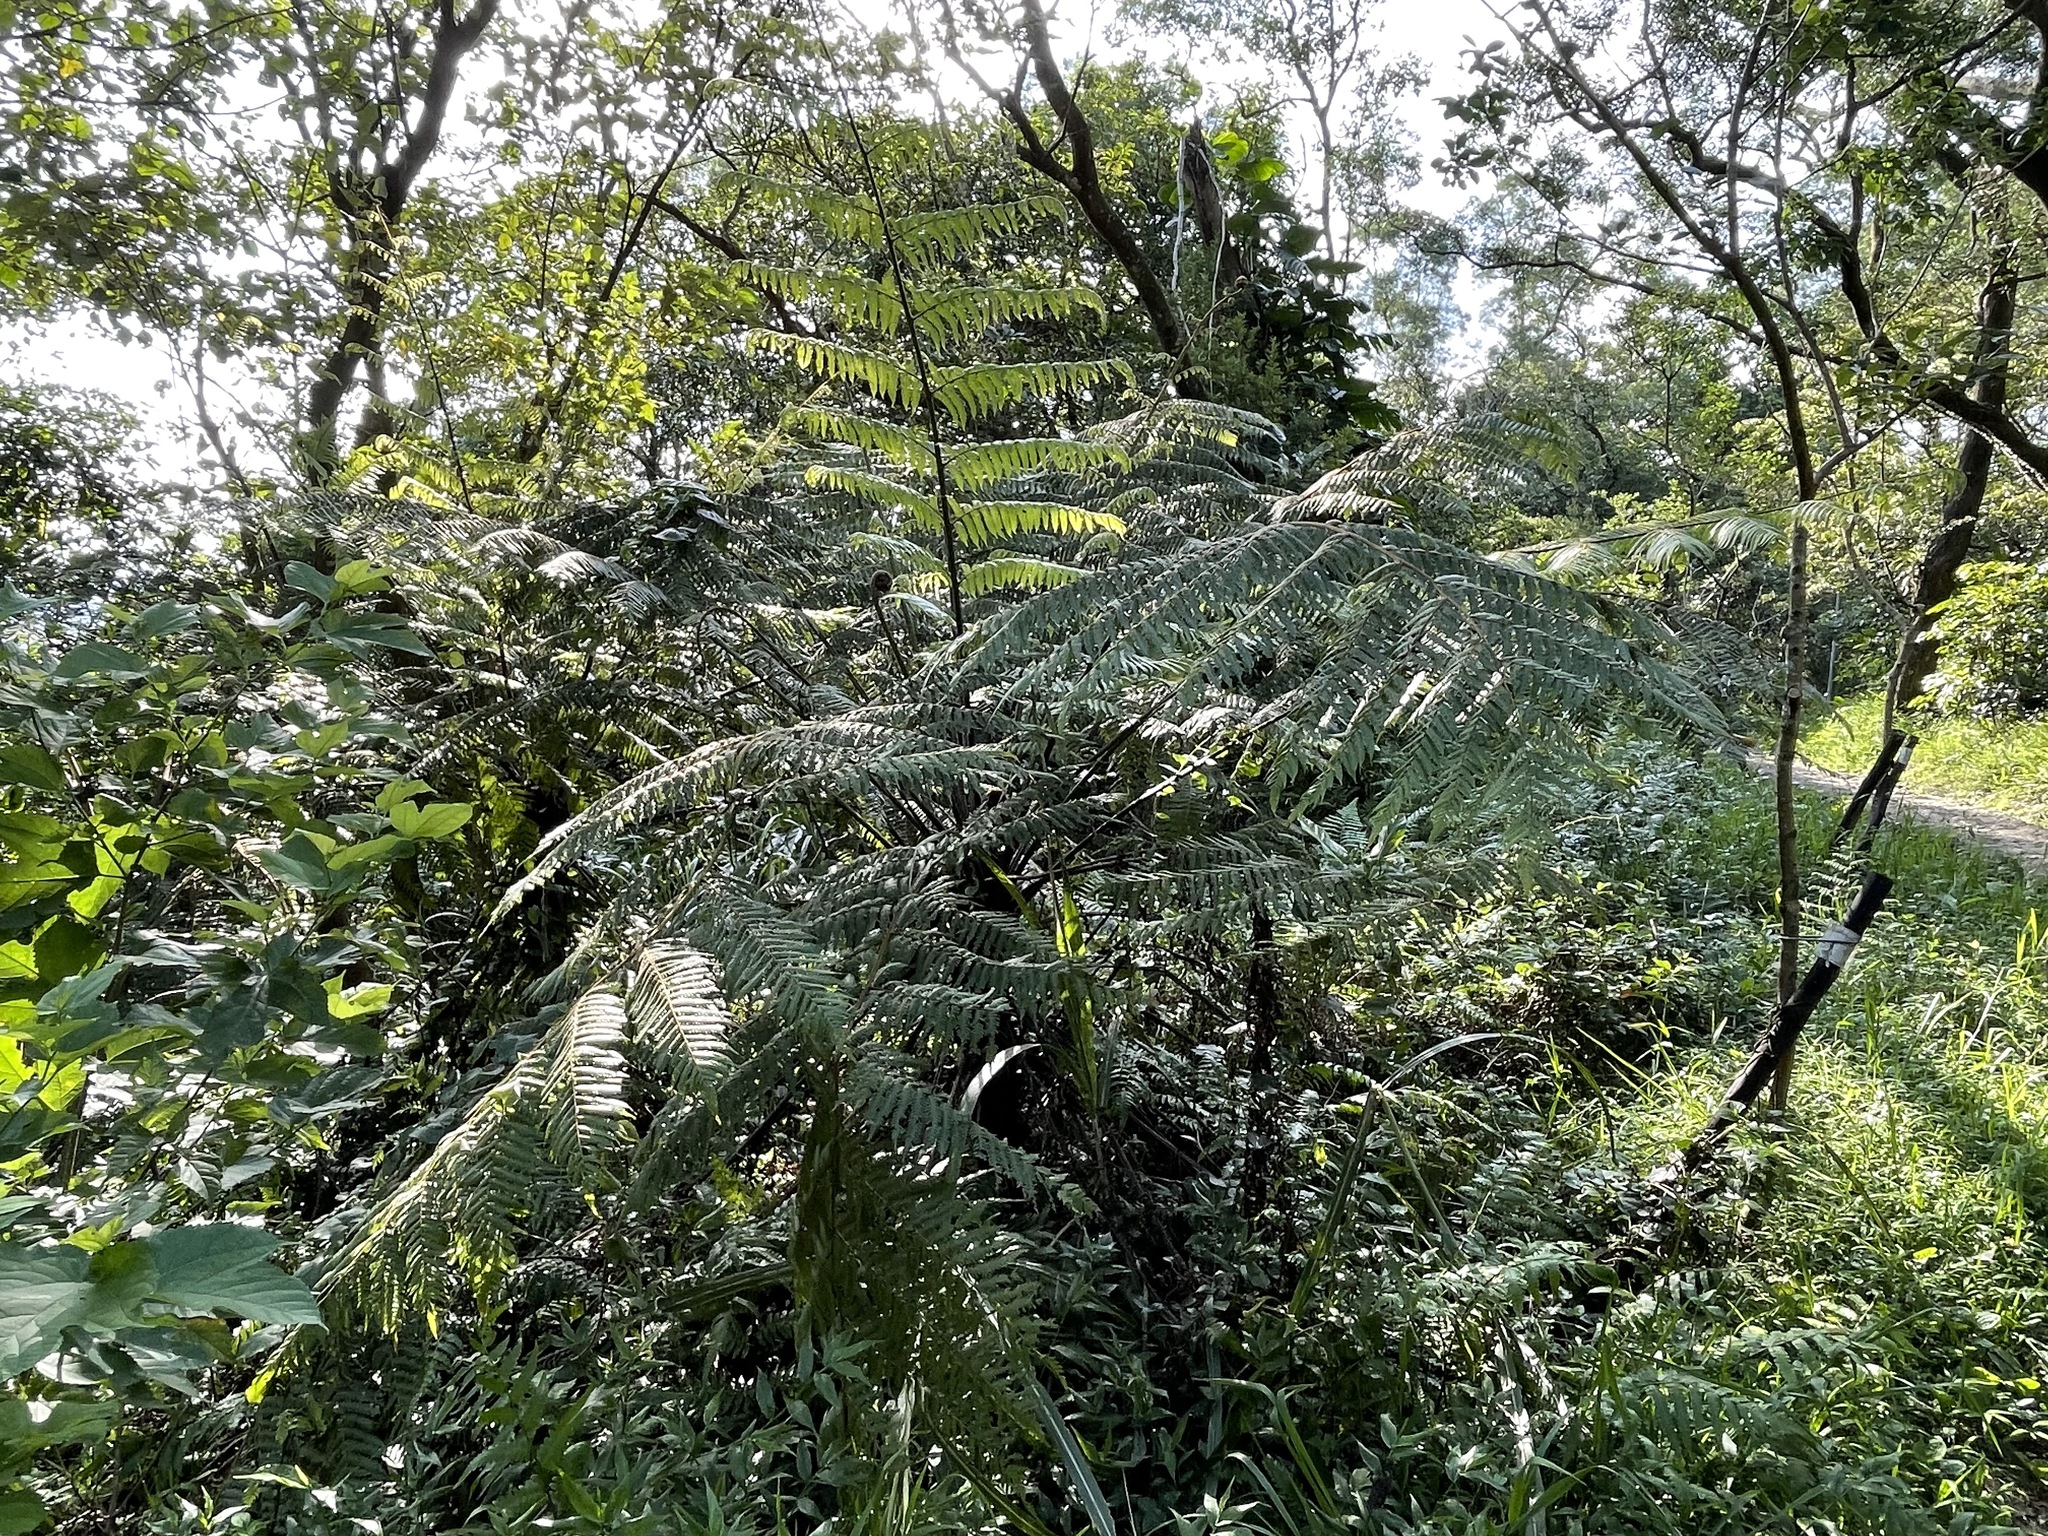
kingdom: Plantae
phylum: Tracheophyta
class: Polypodiopsida
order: Cyatheales
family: Cyatheaceae
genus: Alsophila
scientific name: Alsophila spinulosa
